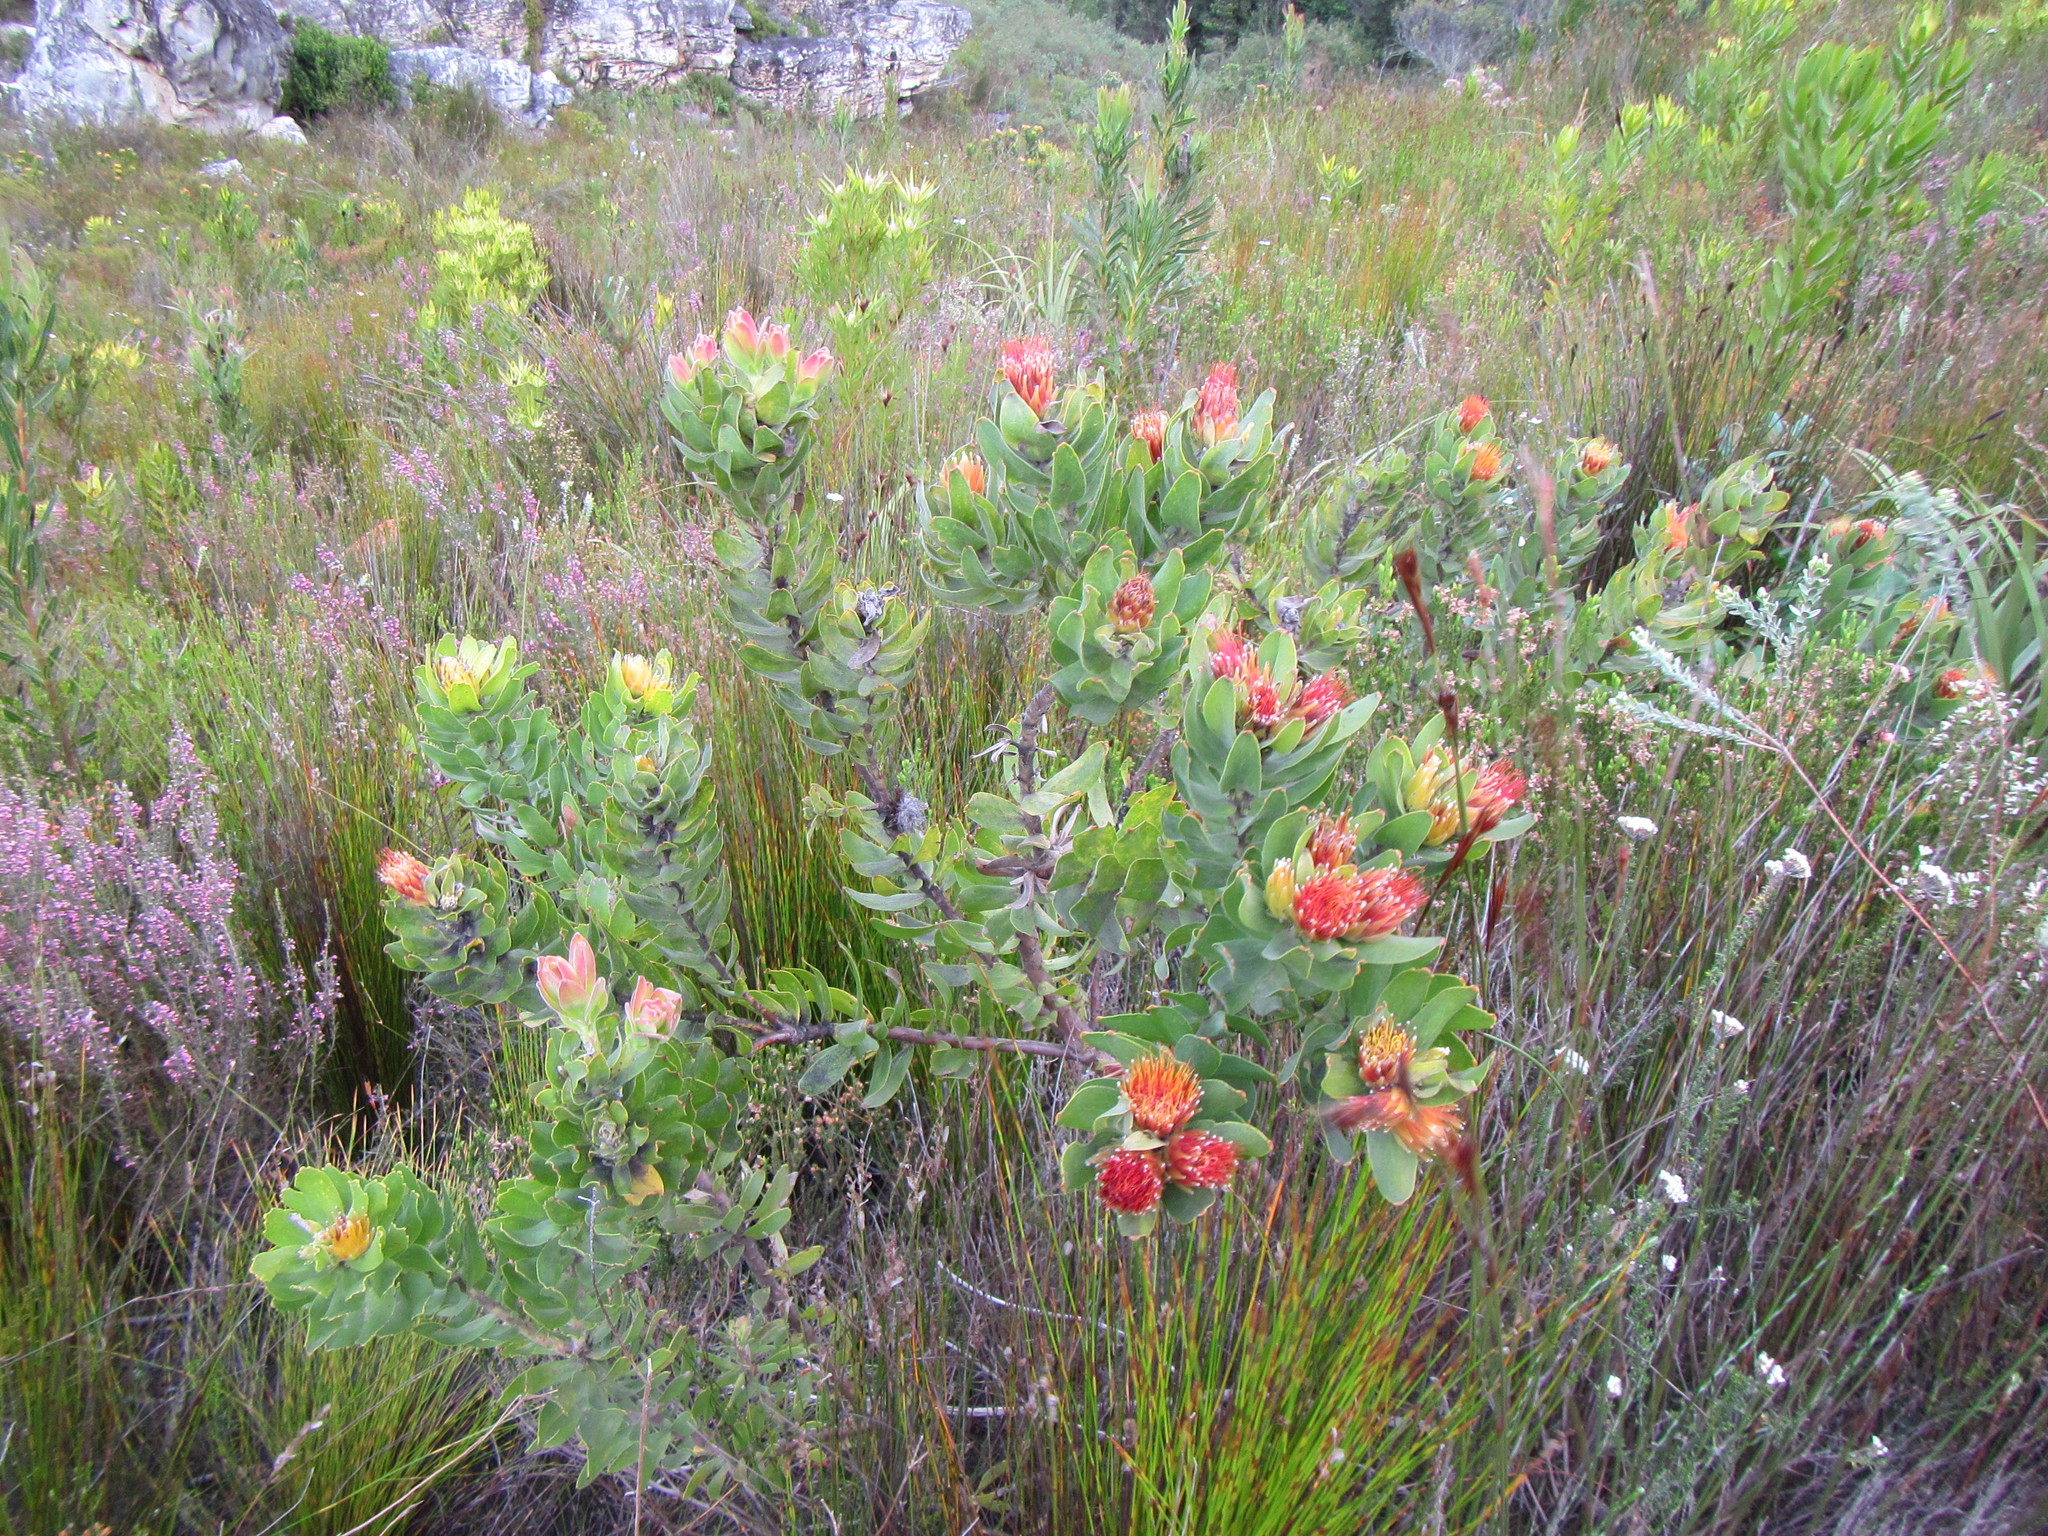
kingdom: Plantae
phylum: Tracheophyta
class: Magnoliopsida
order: Proteales
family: Proteaceae
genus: Leucospermum
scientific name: Leucospermum oleifolium
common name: Matches
